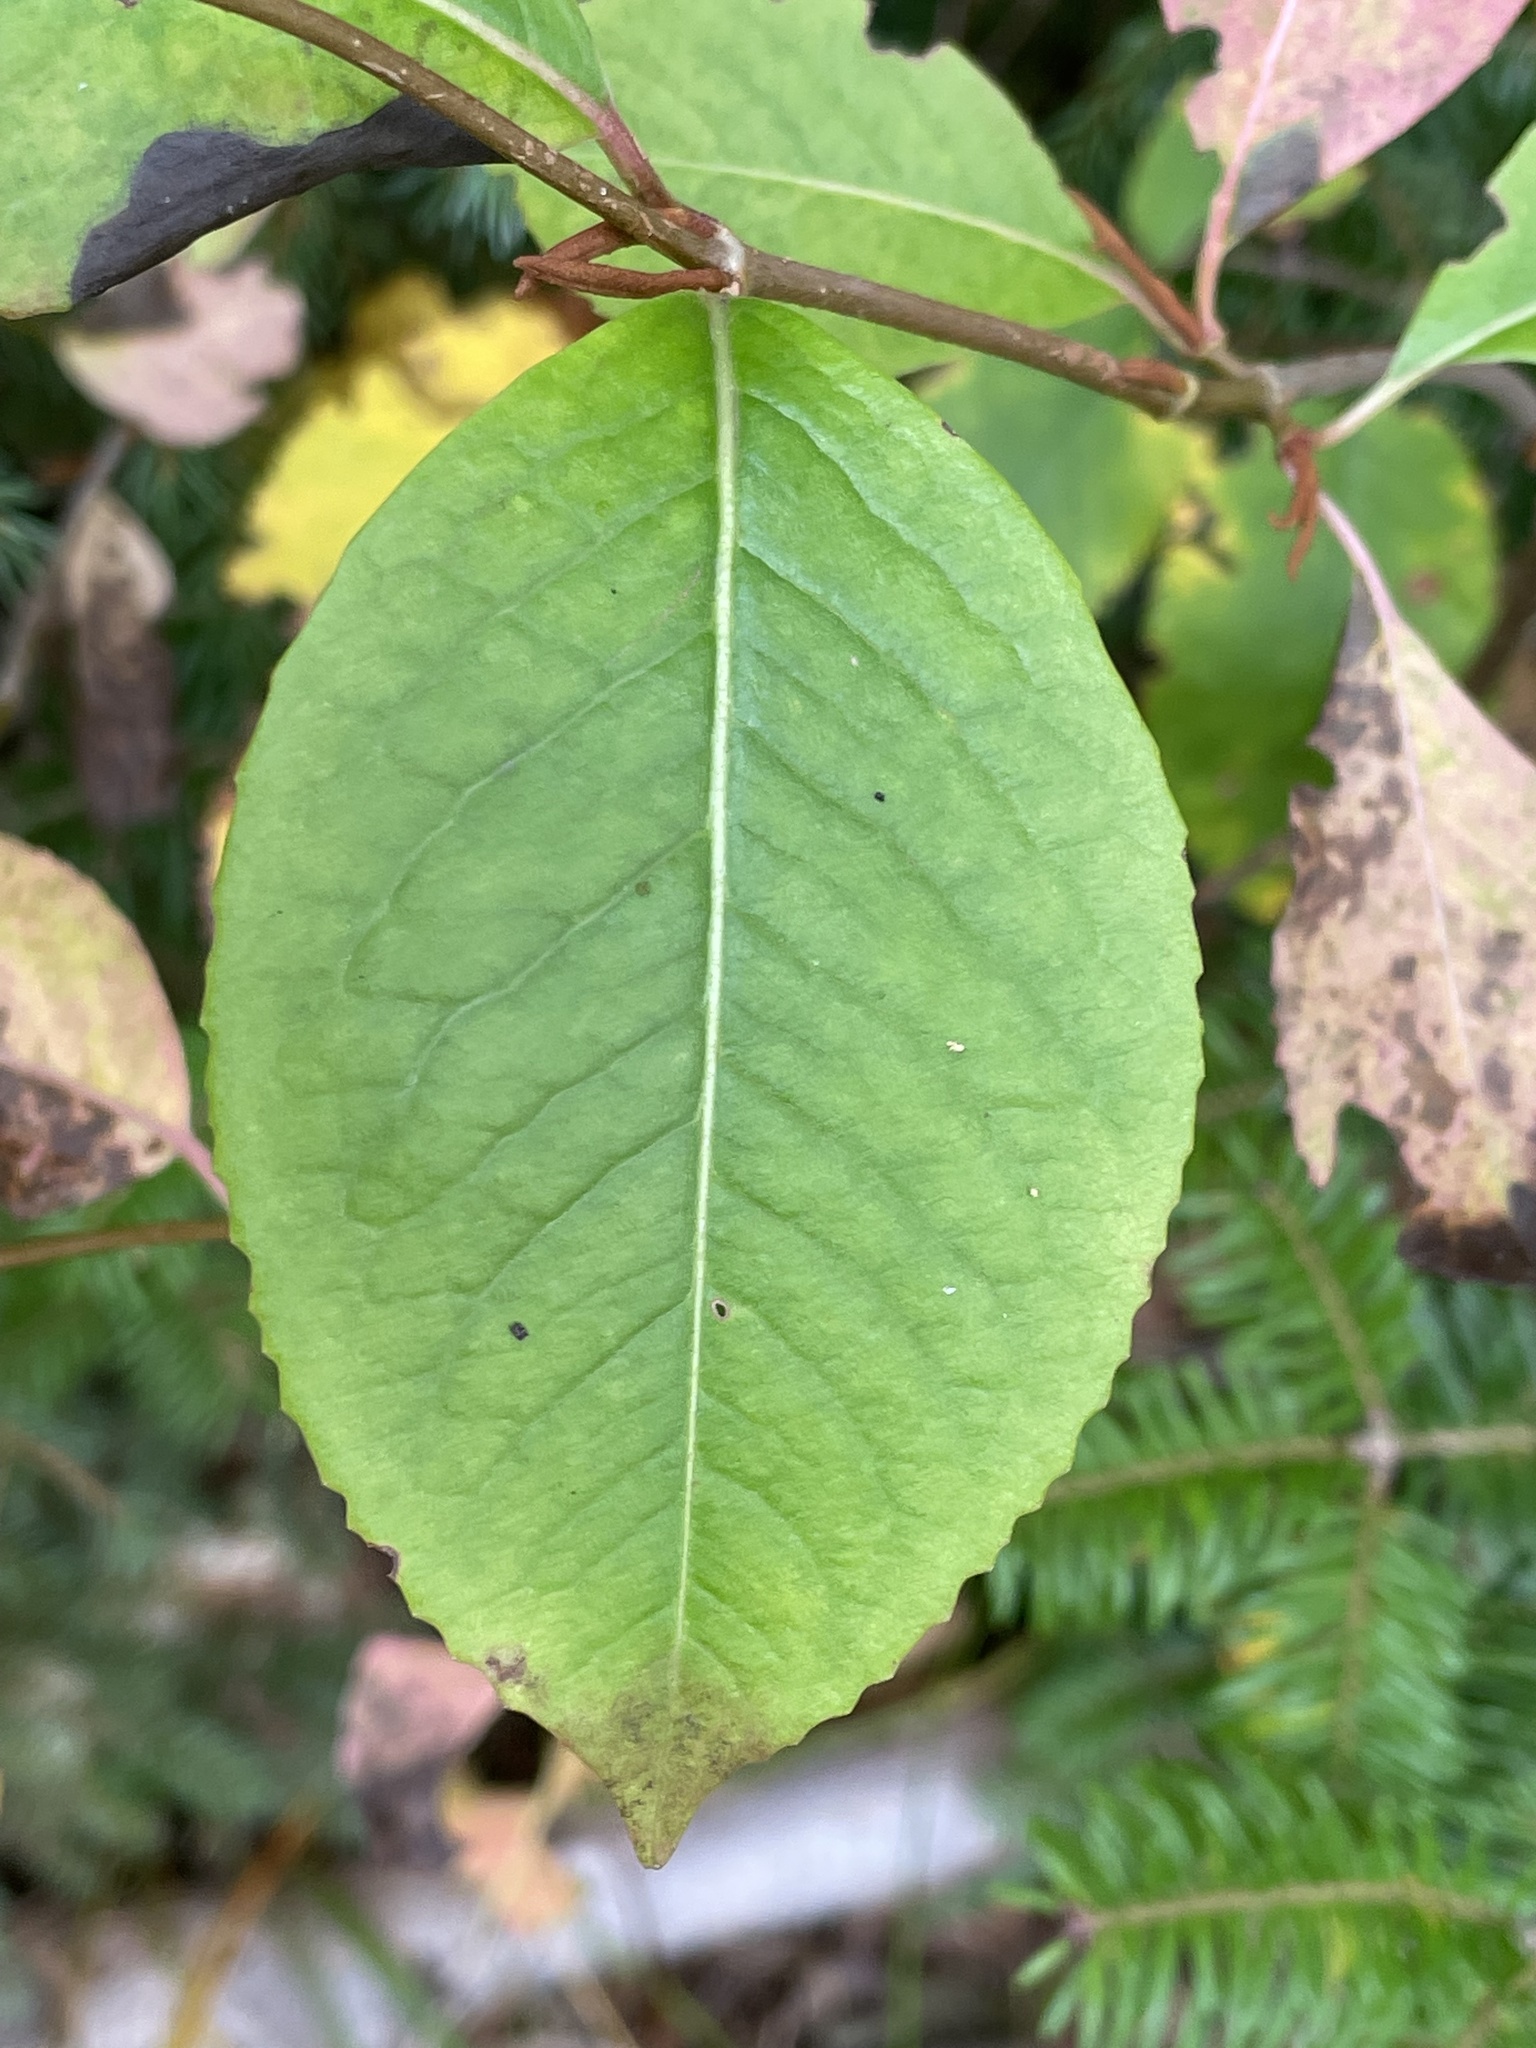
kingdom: Plantae
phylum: Tracheophyta
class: Magnoliopsida
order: Dipsacales
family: Viburnaceae
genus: Viburnum
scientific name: Viburnum cassinoides
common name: Swamp haw
